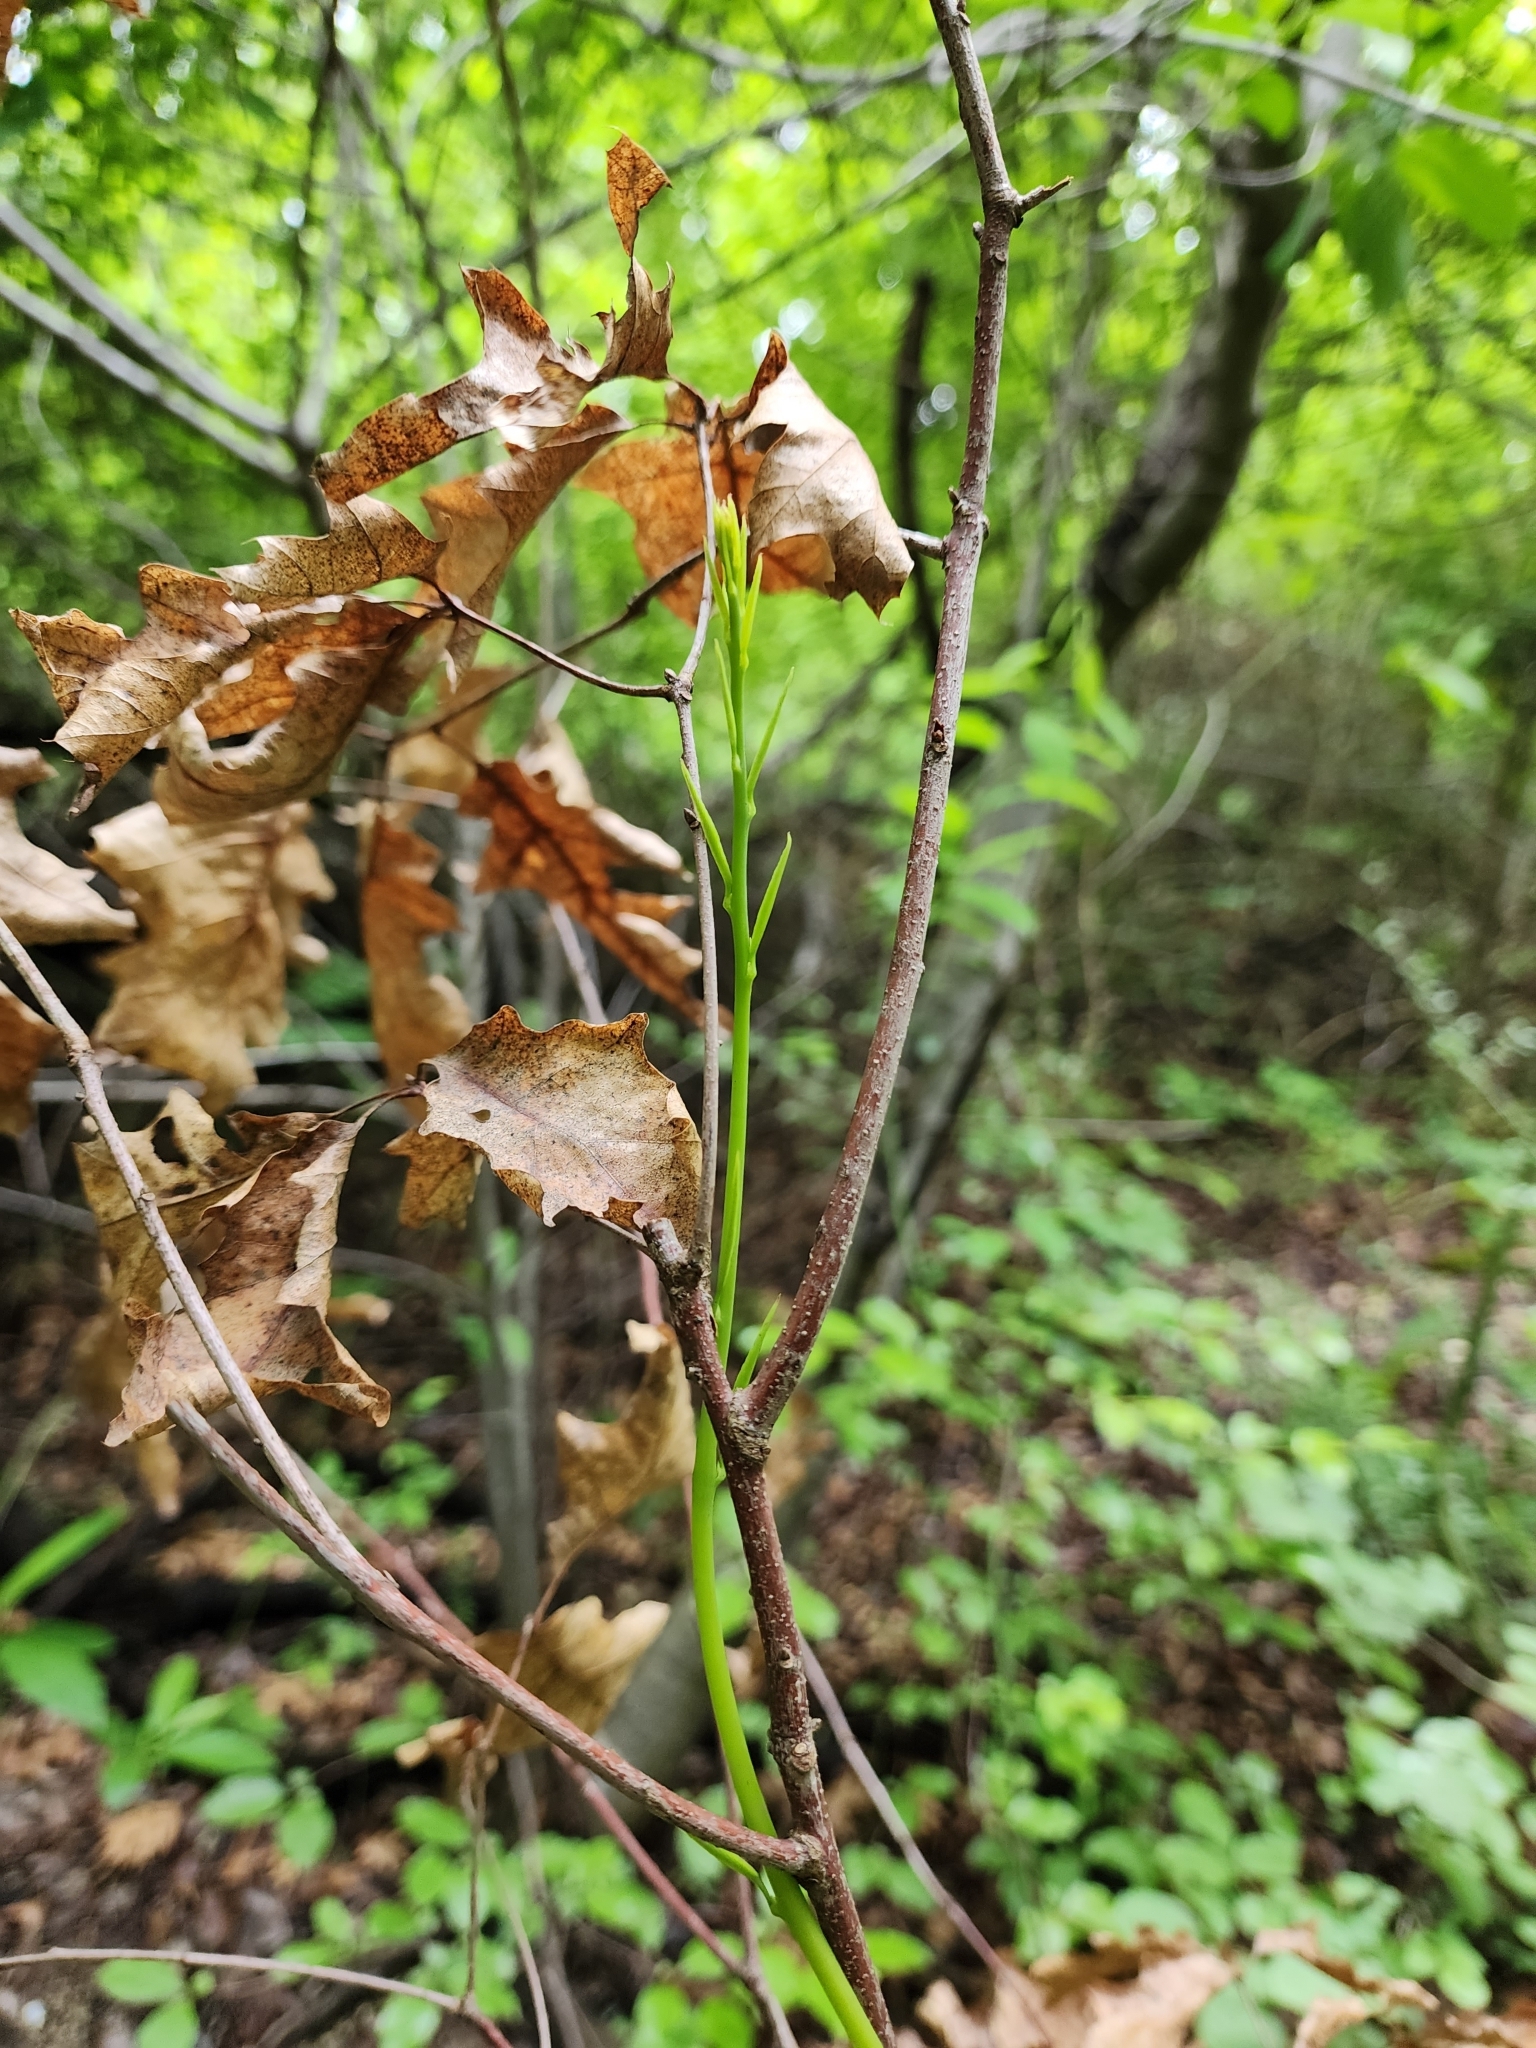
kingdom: Plantae
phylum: Tracheophyta
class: Magnoliopsida
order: Rosales
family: Rhamnaceae
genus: Berchemia
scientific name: Berchemia scandens
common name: Supplejack
